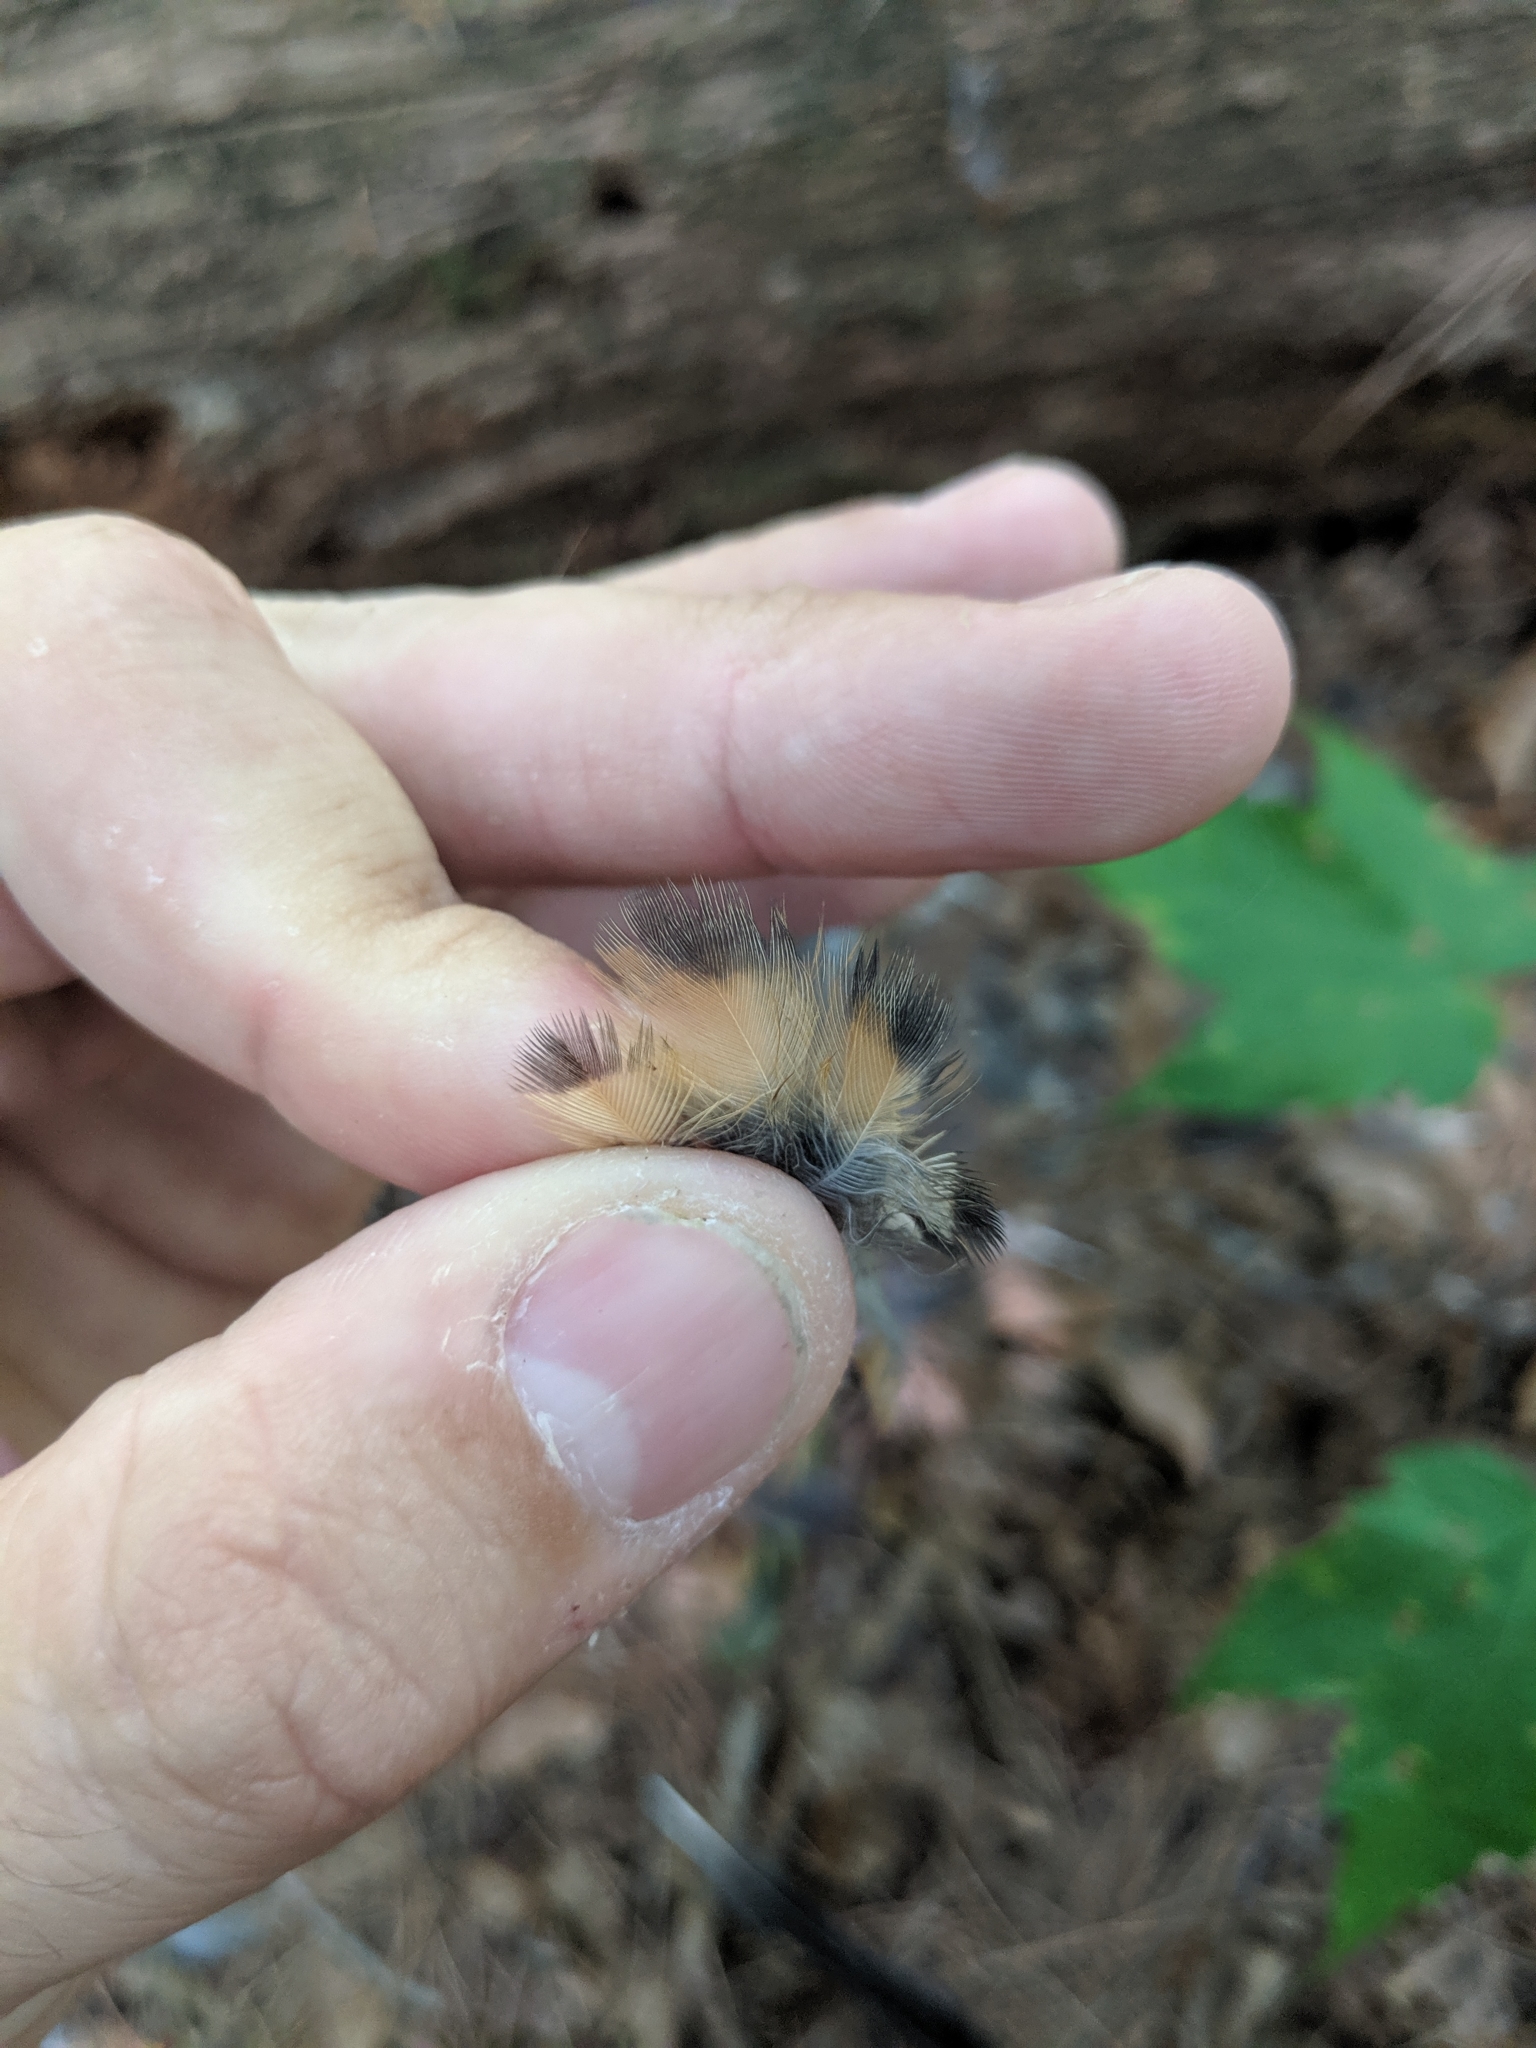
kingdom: Animalia
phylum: Chordata
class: Aves
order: Passeriformes
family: Turdidae
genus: Turdus
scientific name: Turdus migratorius
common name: American robin
